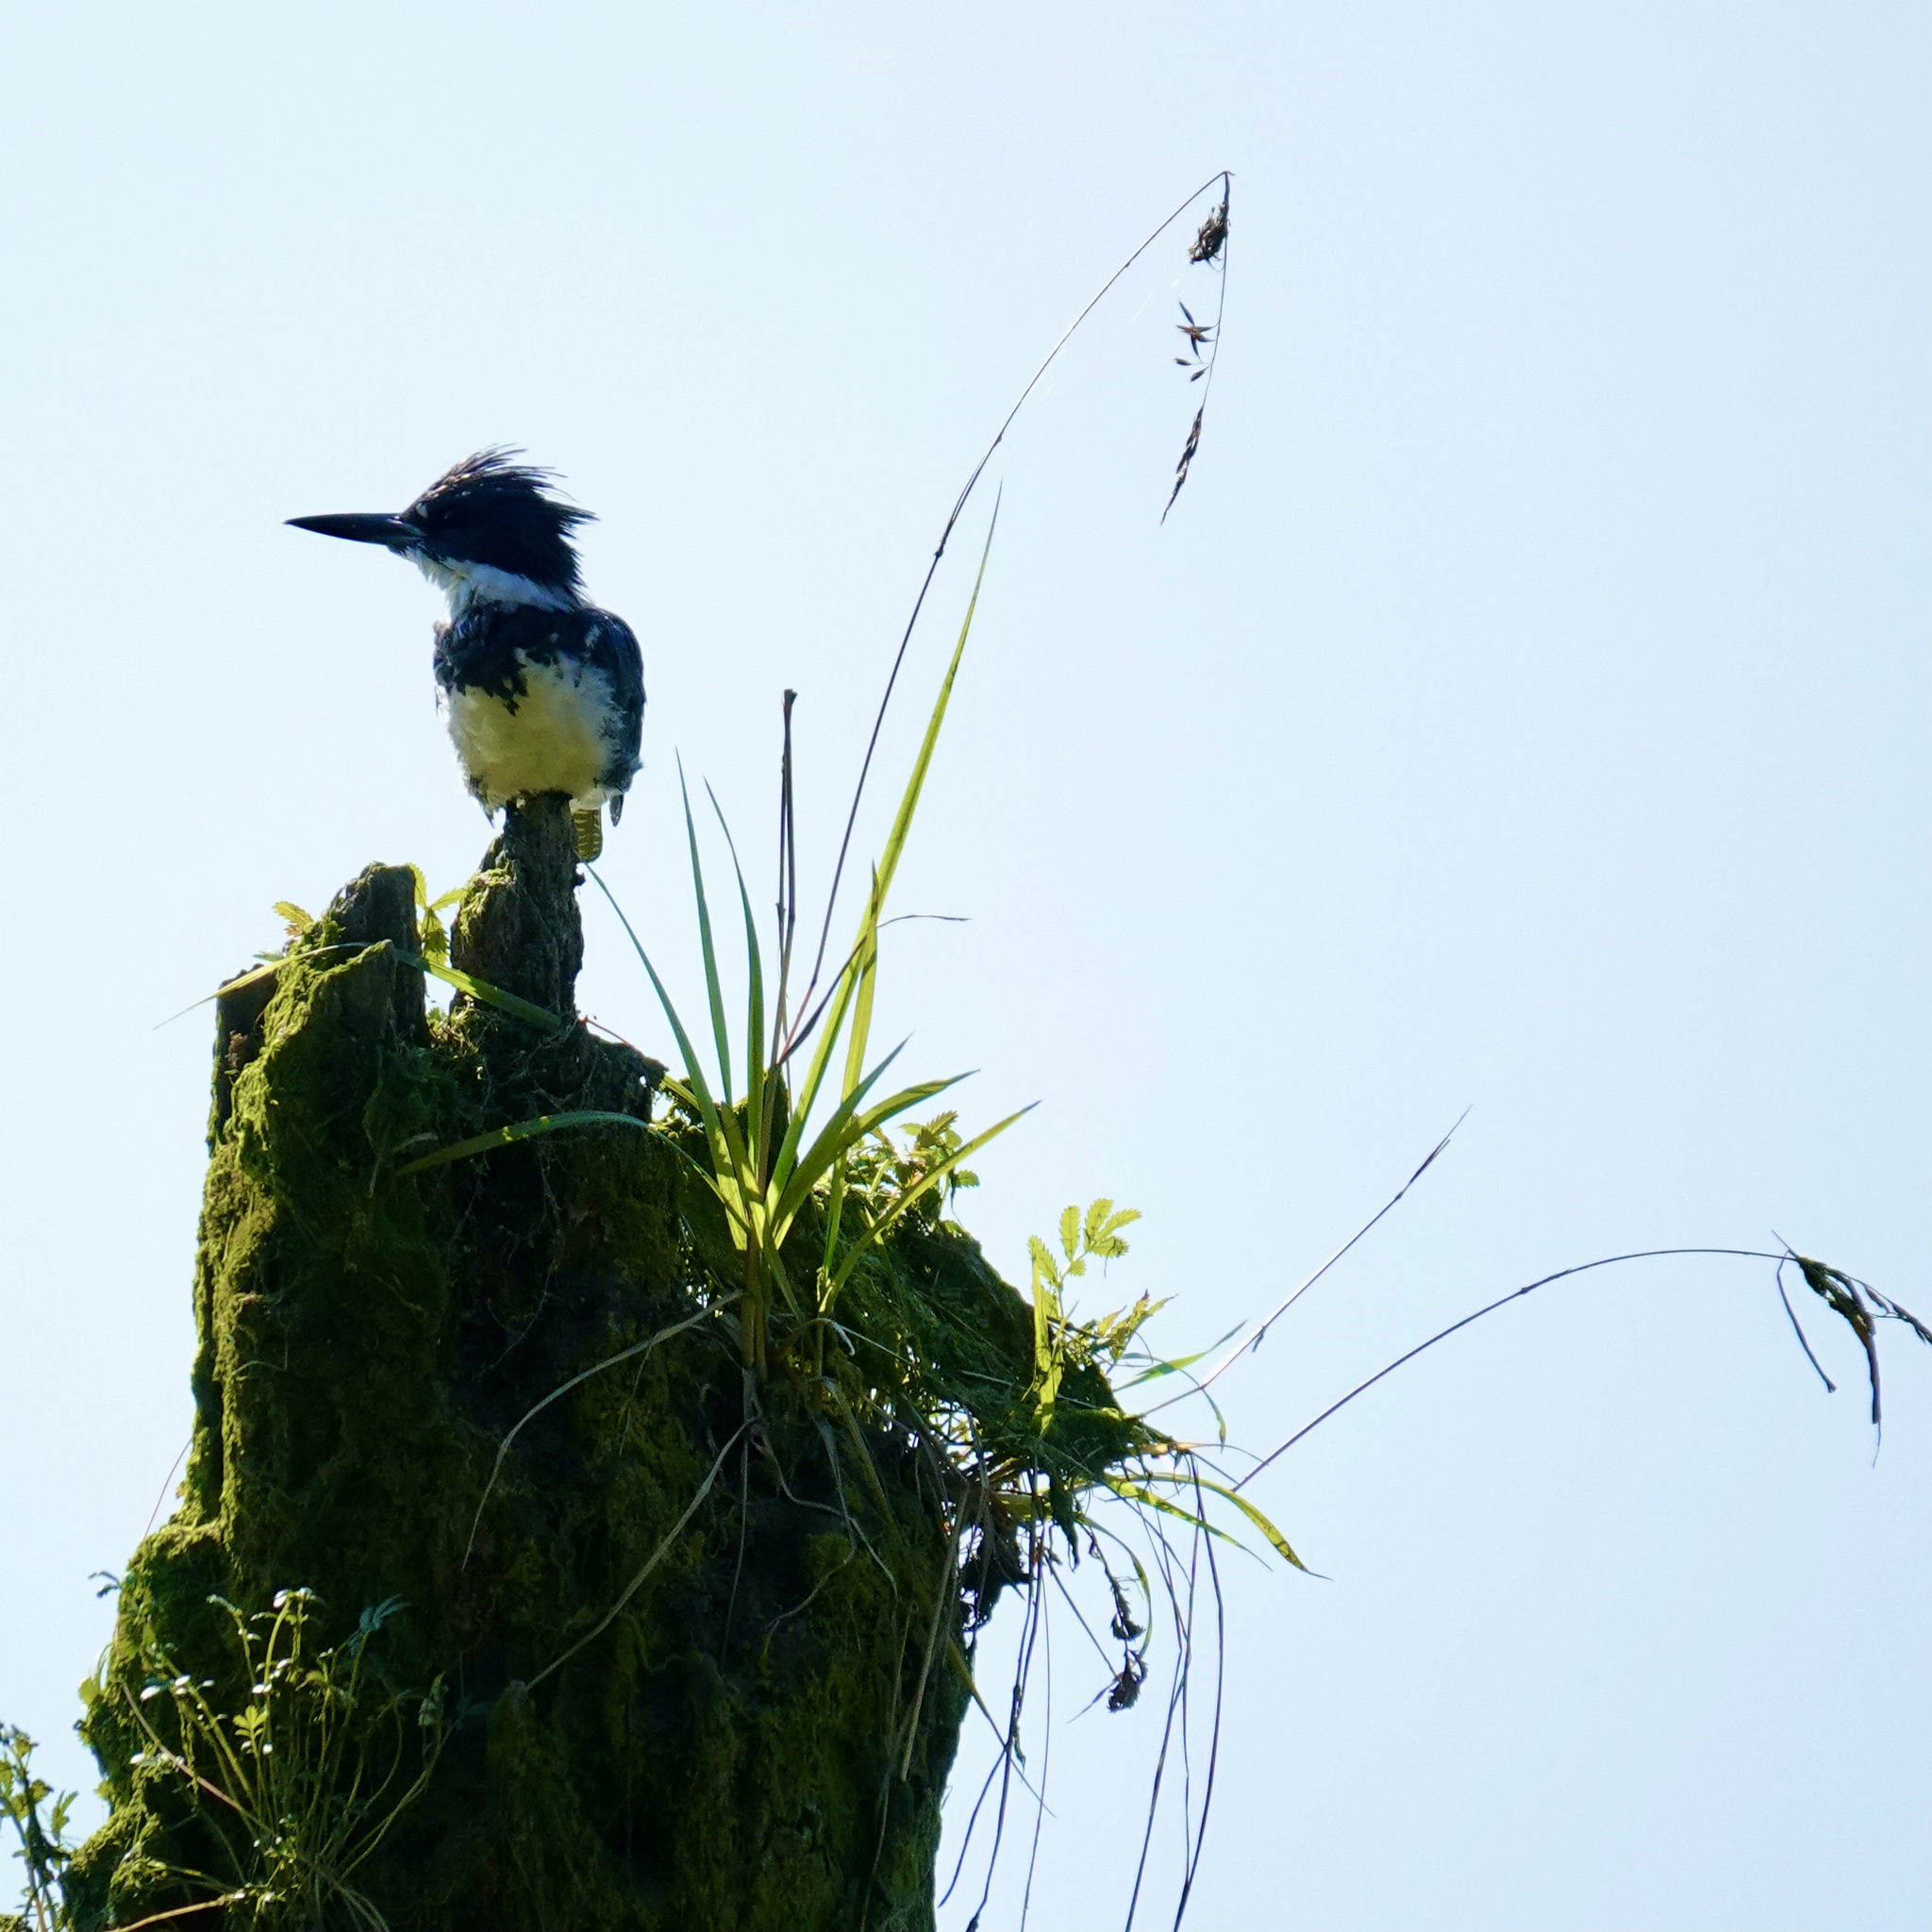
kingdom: Animalia
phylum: Chordata
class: Aves
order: Coraciiformes
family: Alcedinidae
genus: Megaceryle
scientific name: Megaceryle alcyon
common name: Belted kingfisher
